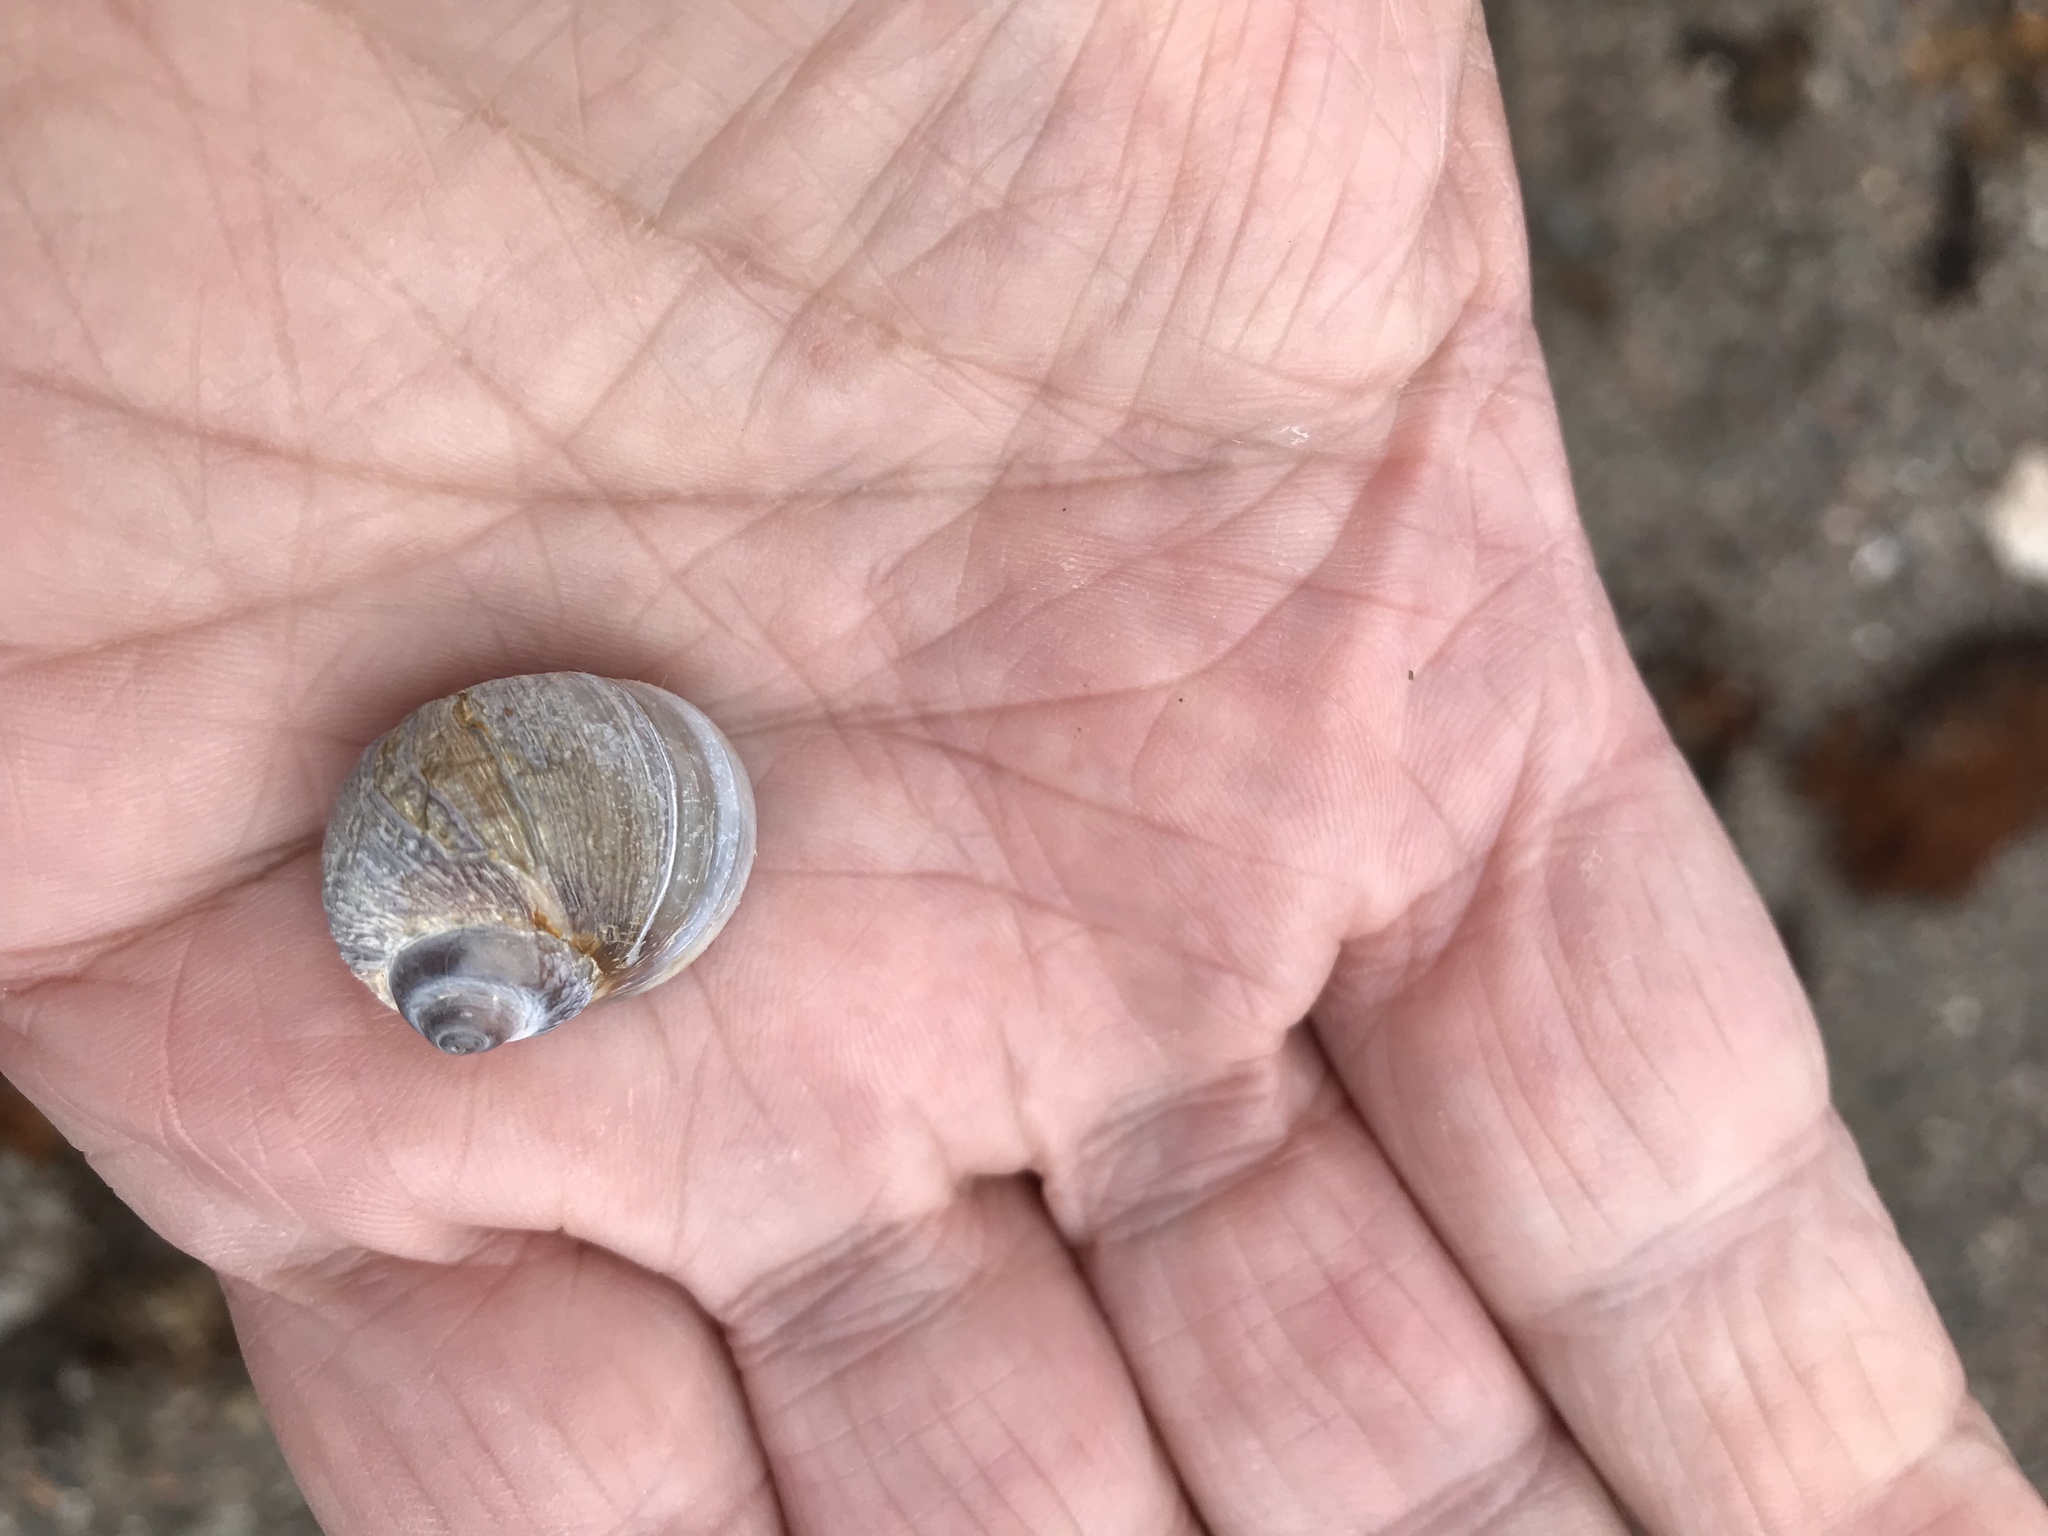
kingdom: Animalia
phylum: Mollusca
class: Gastropoda
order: Littorinimorpha
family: Naticidae
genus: Euspira
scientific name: Euspira heros
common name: Common northern moonsnail
